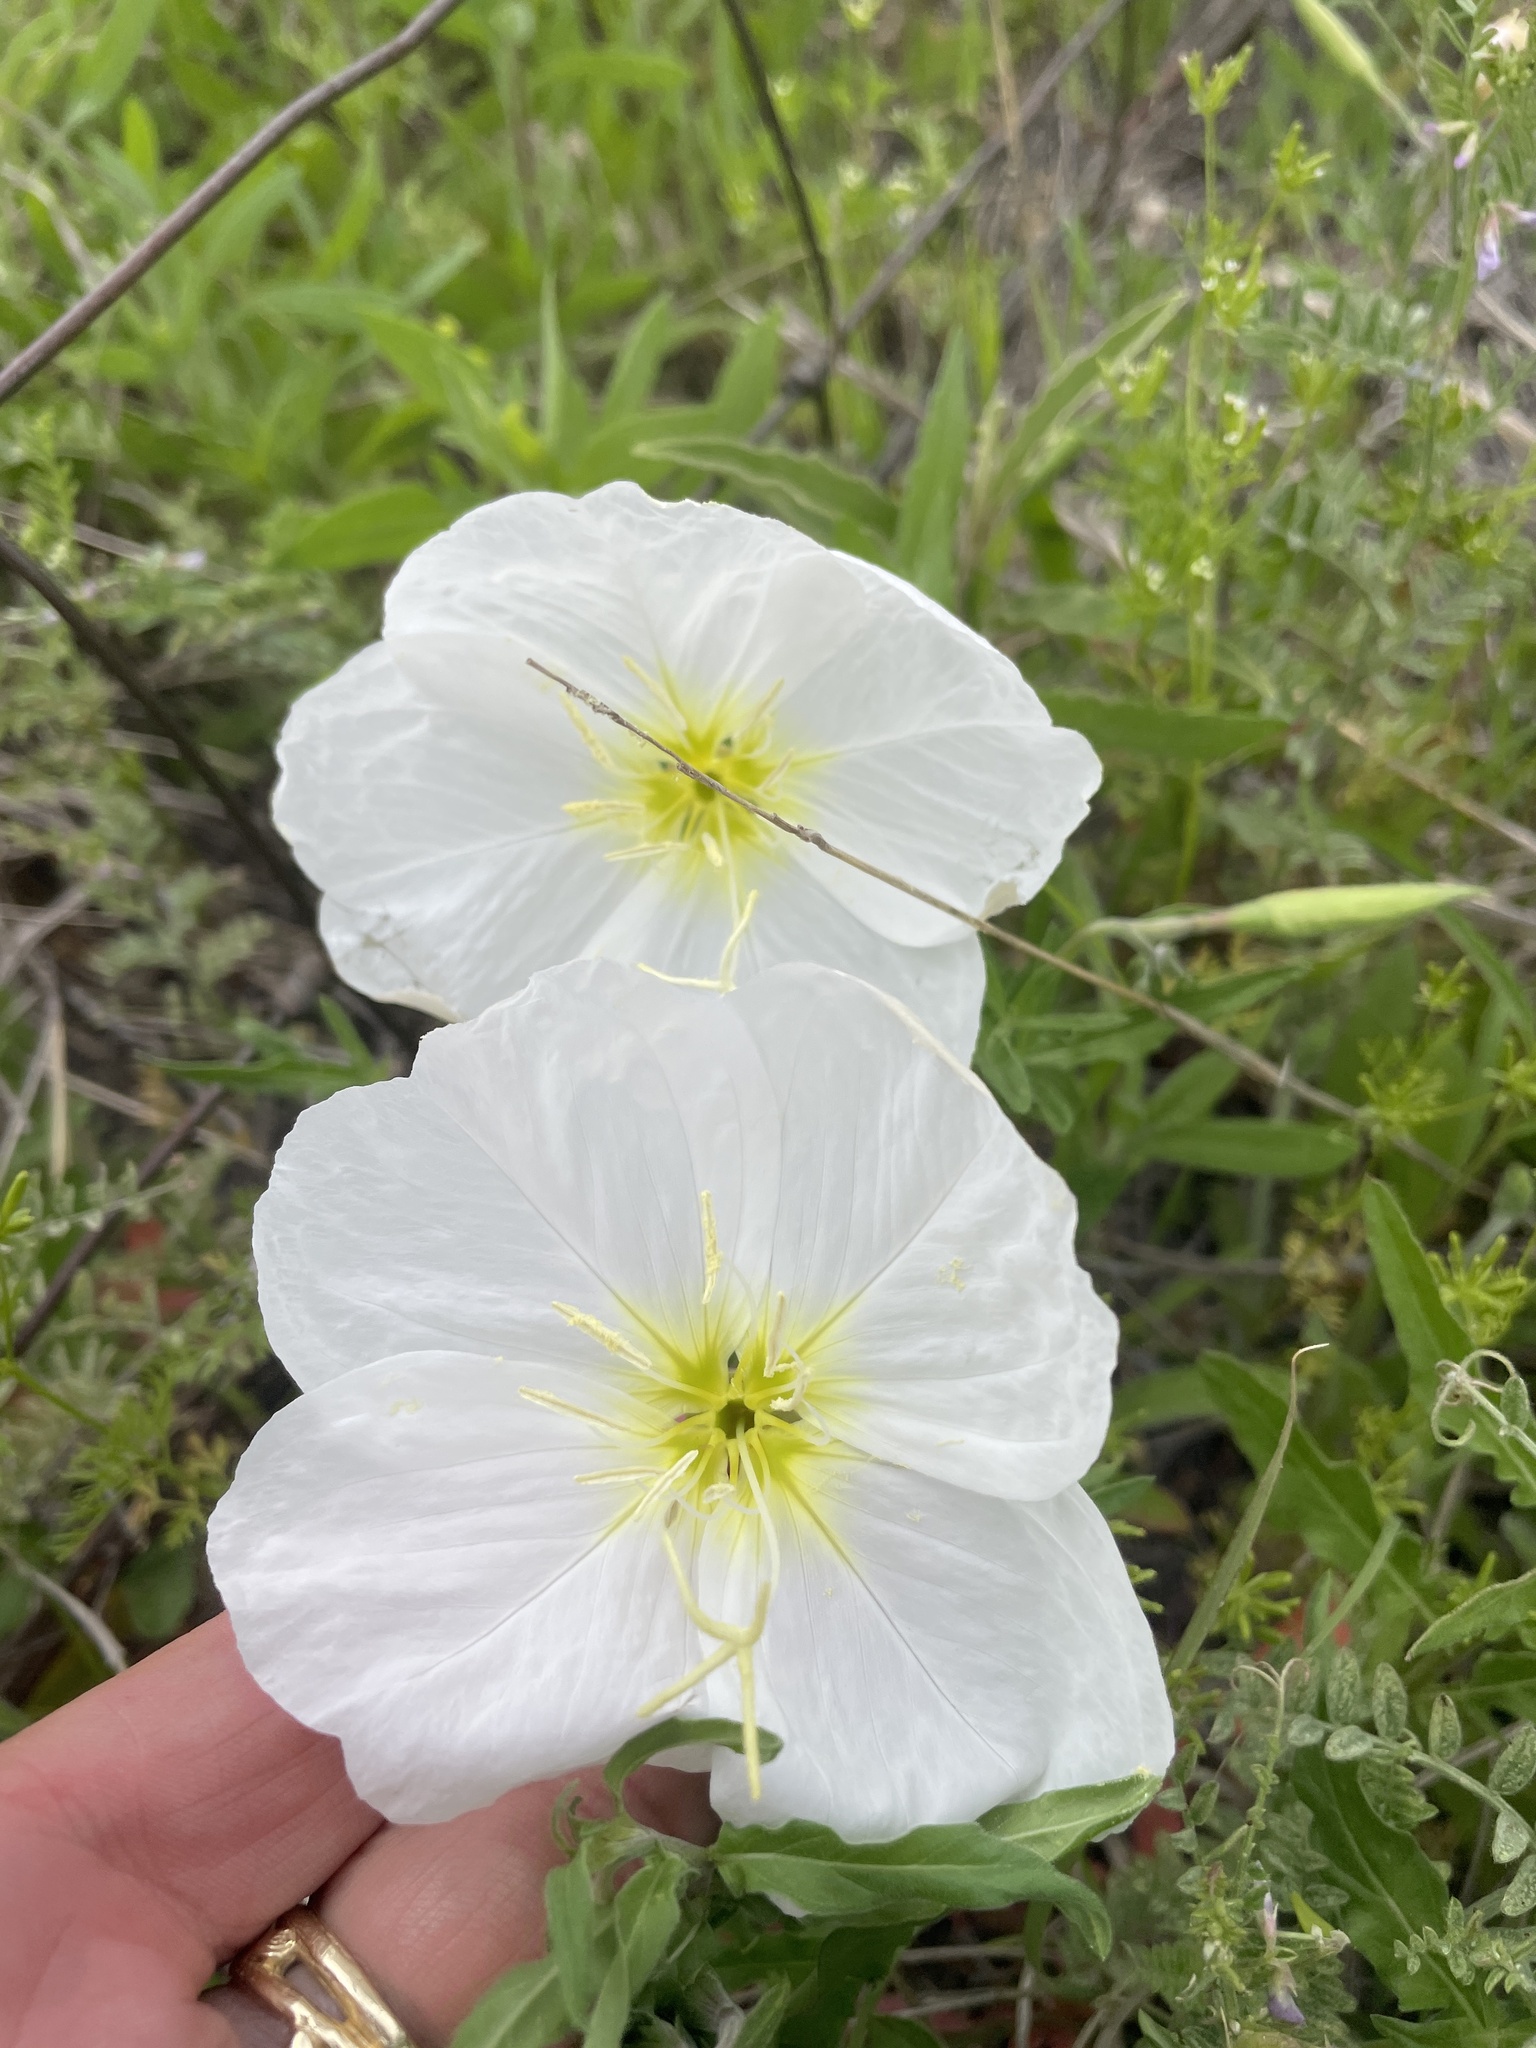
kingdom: Plantae
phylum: Tracheophyta
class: Magnoliopsida
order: Myrtales
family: Onagraceae
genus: Oenothera
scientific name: Oenothera speciosa
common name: White evening-primrose
